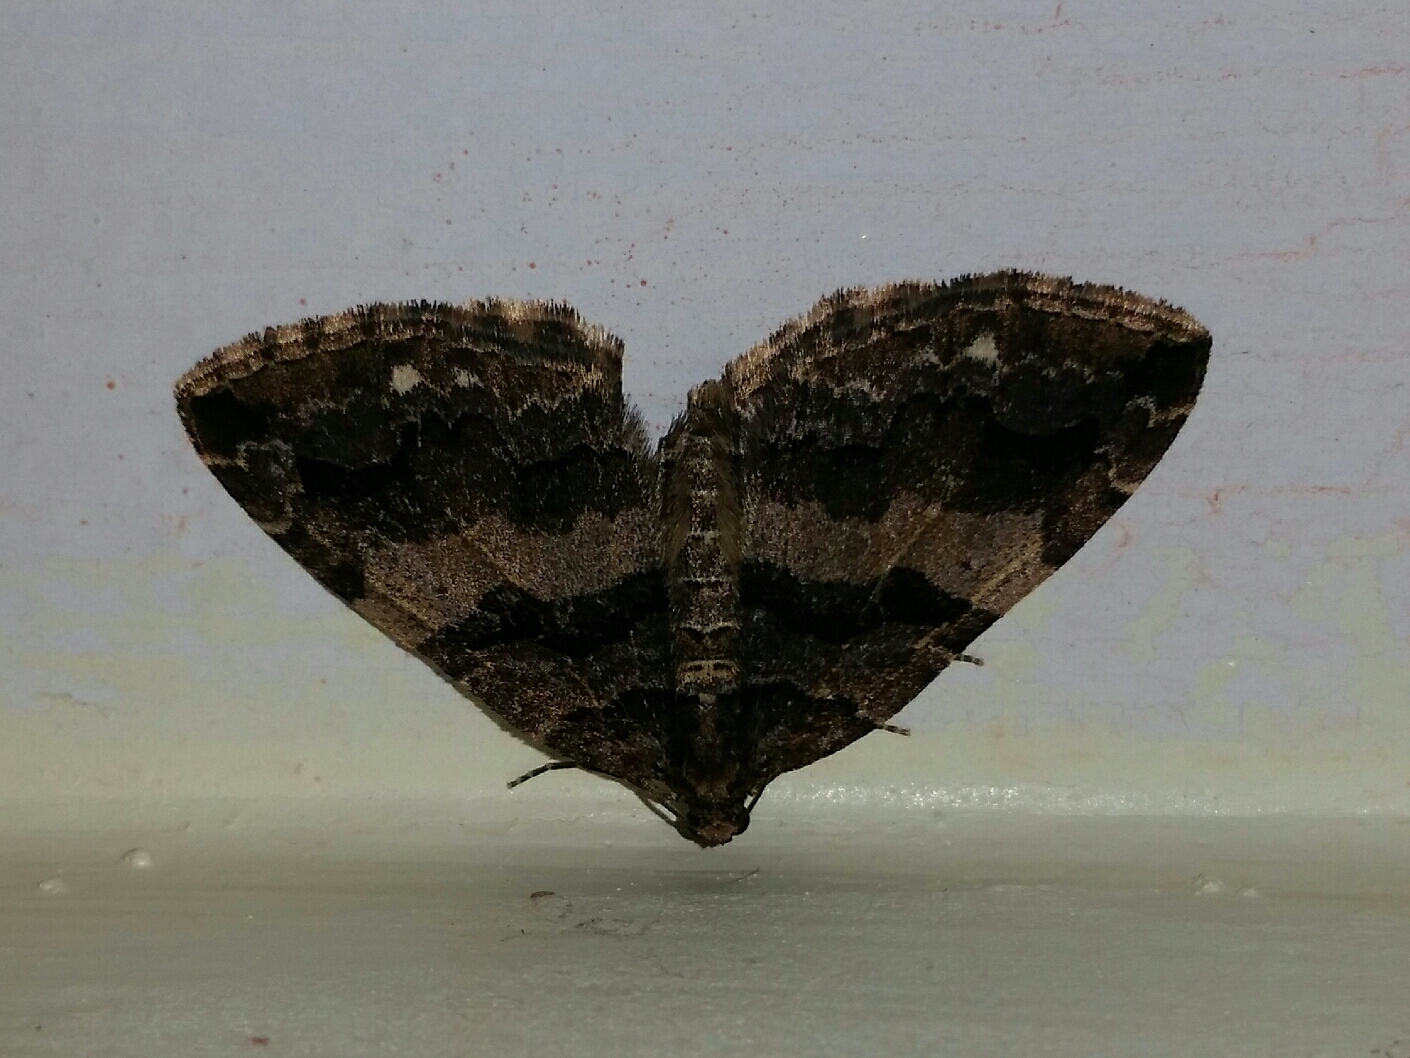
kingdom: Animalia
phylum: Arthropoda
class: Insecta
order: Lepidoptera
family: Geometridae
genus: Anticlea
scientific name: Anticlea vasiliata
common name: Variable carpet
